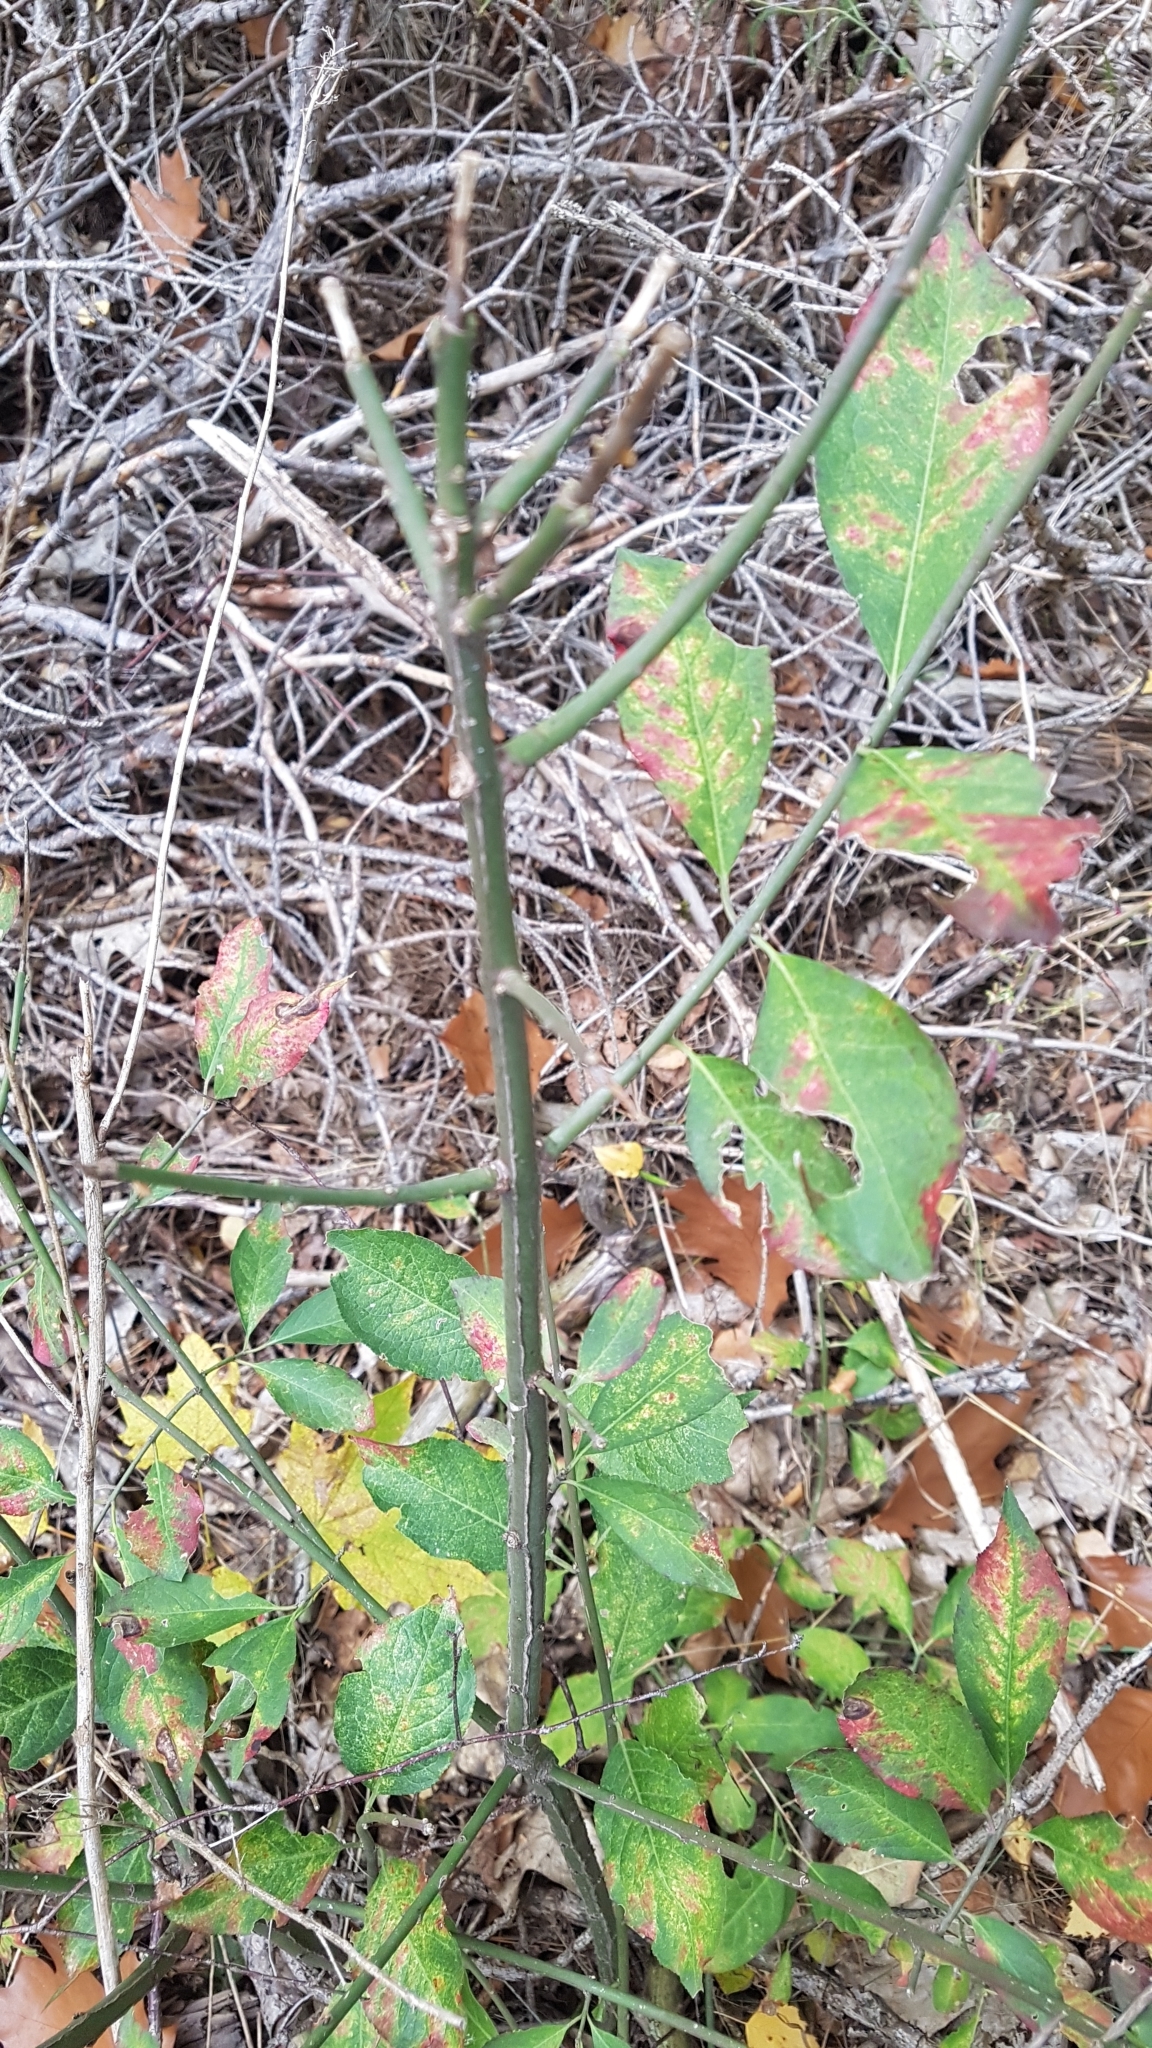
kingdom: Plantae
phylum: Tracheophyta
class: Magnoliopsida
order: Celastrales
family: Celastraceae
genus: Euonymus
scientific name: Euonymus europaeus
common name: Spindle
